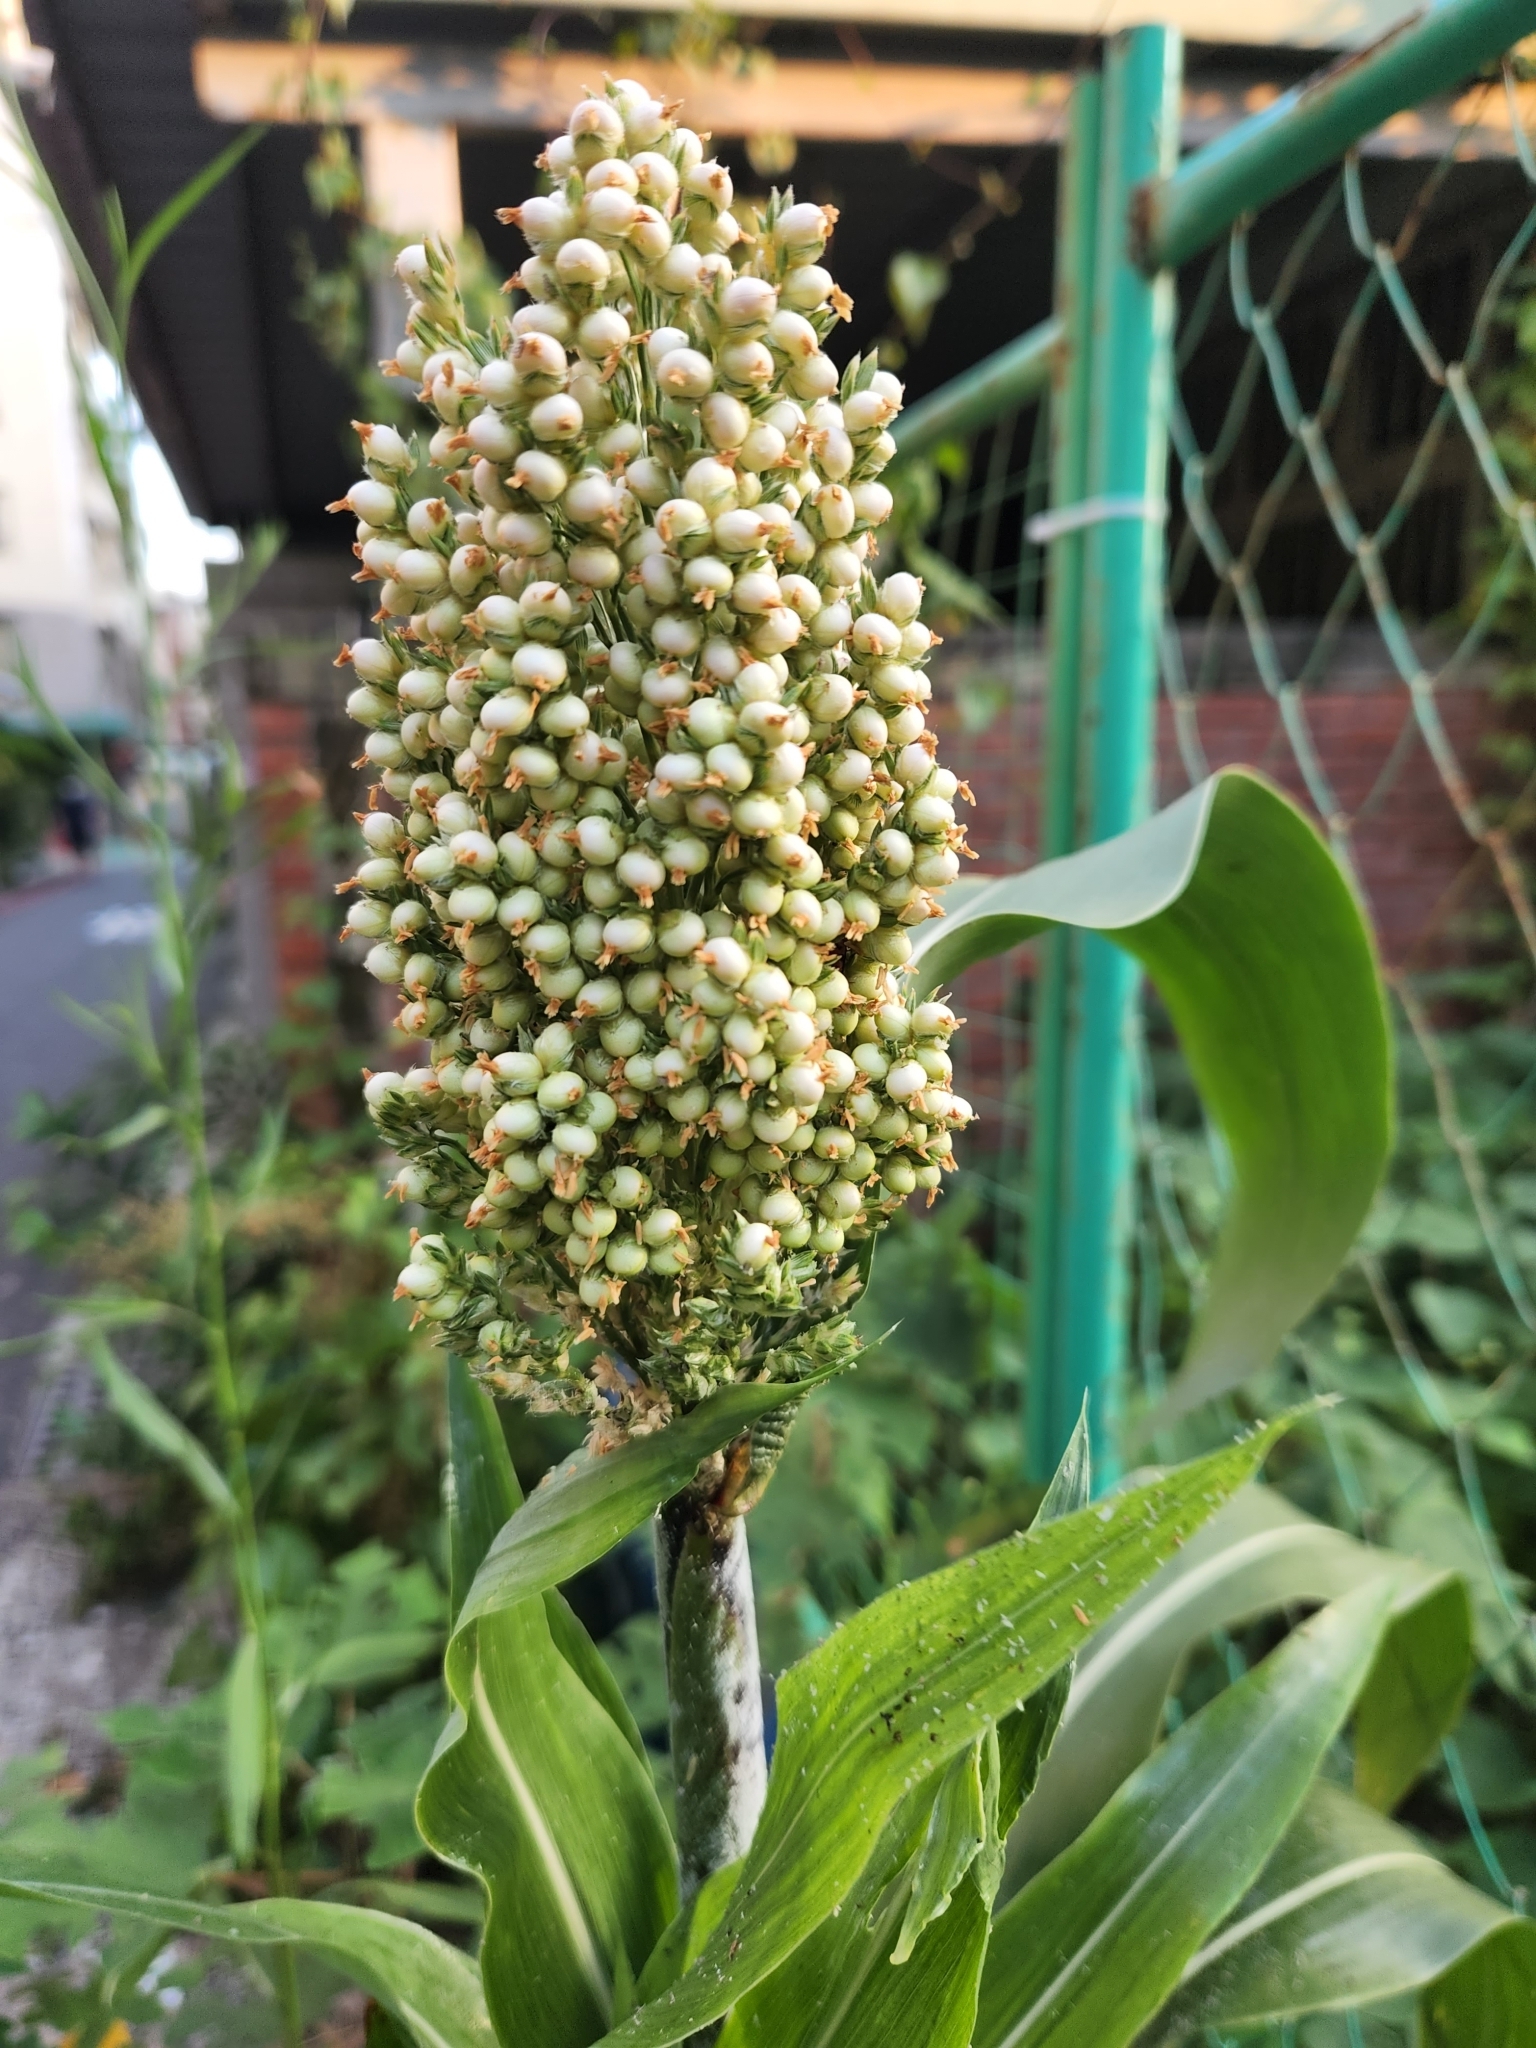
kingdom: Plantae
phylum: Tracheophyta
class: Liliopsida
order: Poales
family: Poaceae
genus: Sorghum
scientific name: Sorghum bicolor
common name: Sorghum
